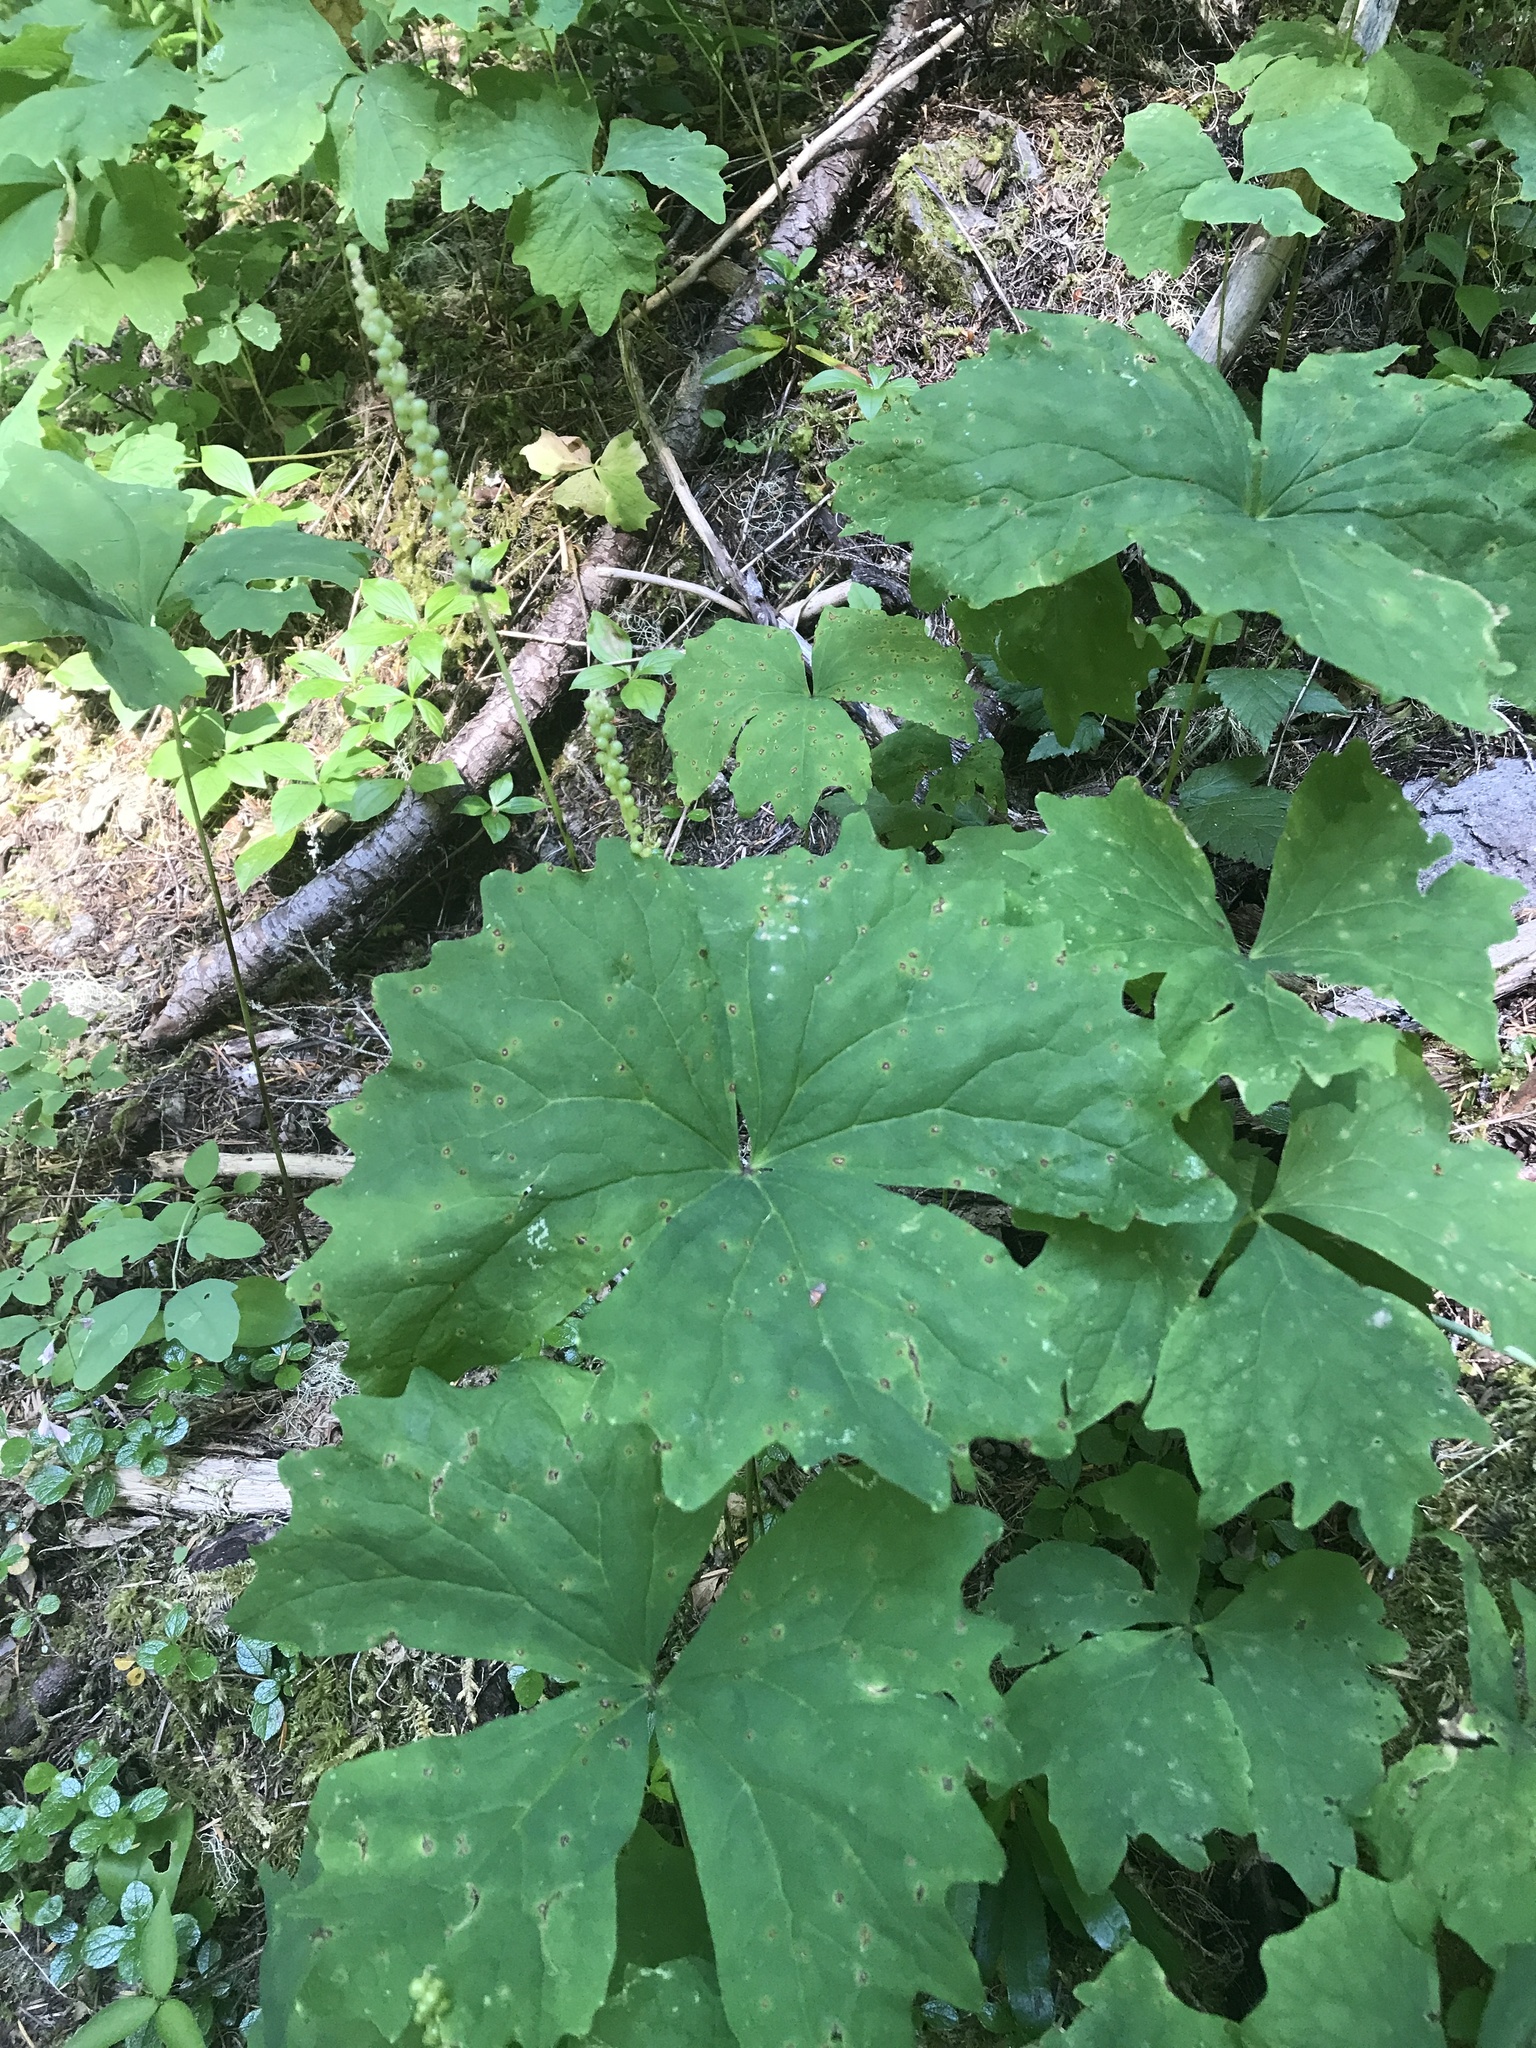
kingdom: Plantae
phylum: Tracheophyta
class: Magnoliopsida
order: Ranunculales
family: Berberidaceae
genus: Achlys
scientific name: Achlys triphylla
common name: Vanilla-leaf
